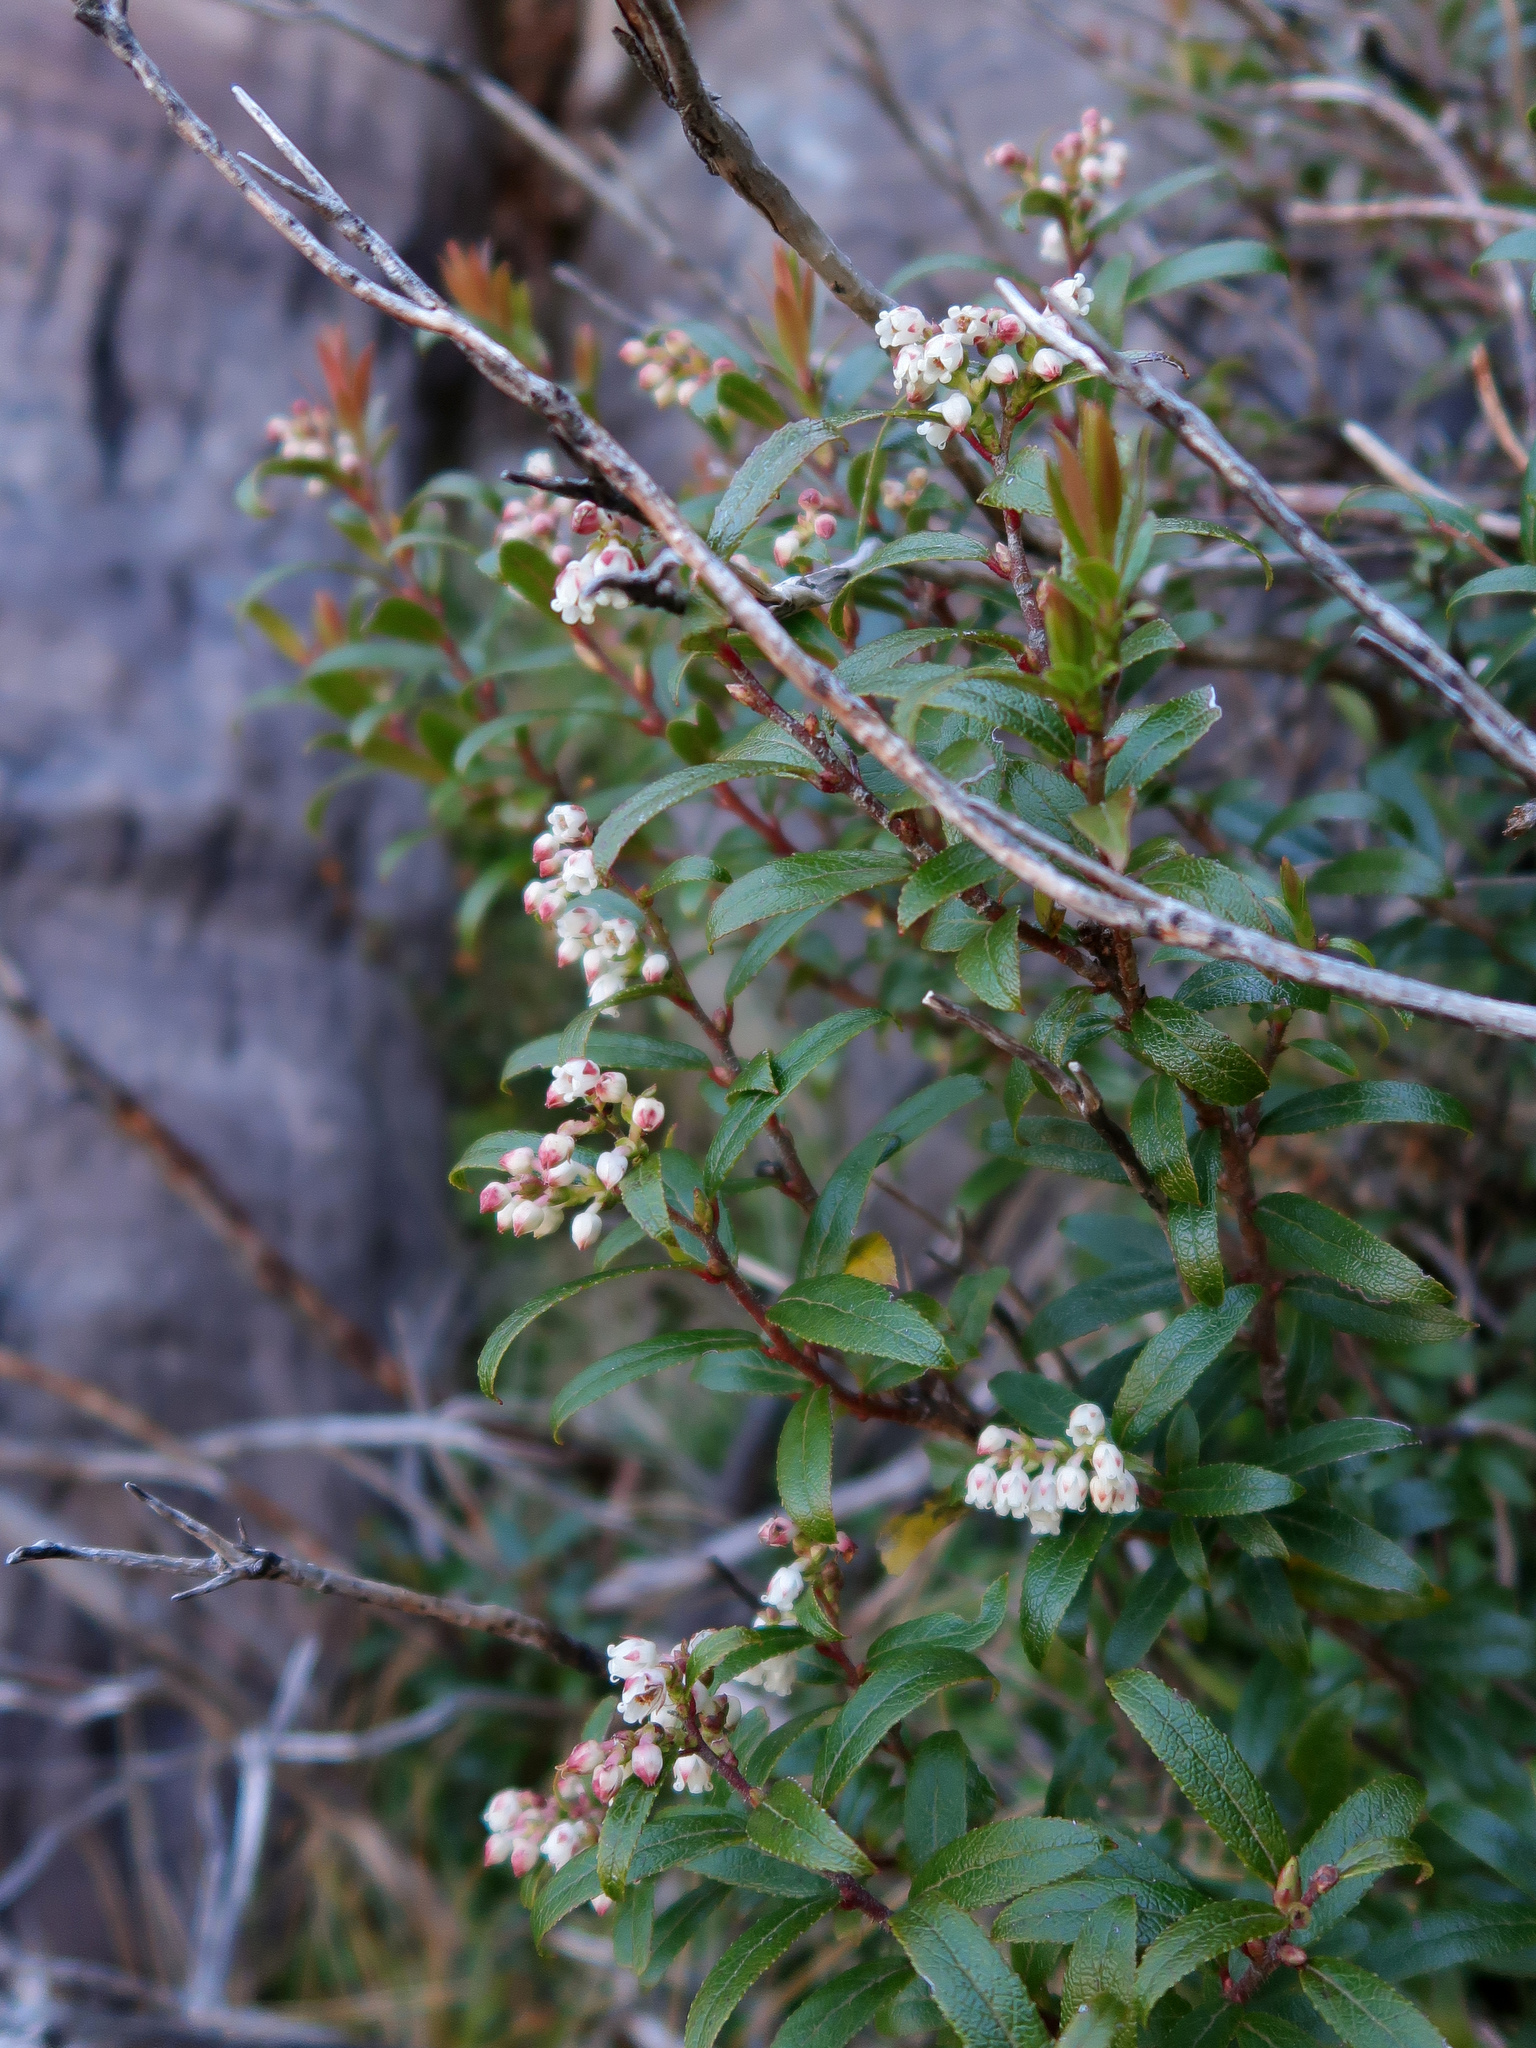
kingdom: Plantae
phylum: Tracheophyta
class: Magnoliopsida
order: Ericales
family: Ericaceae
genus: Gaultheria
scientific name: Gaultheria hispida
